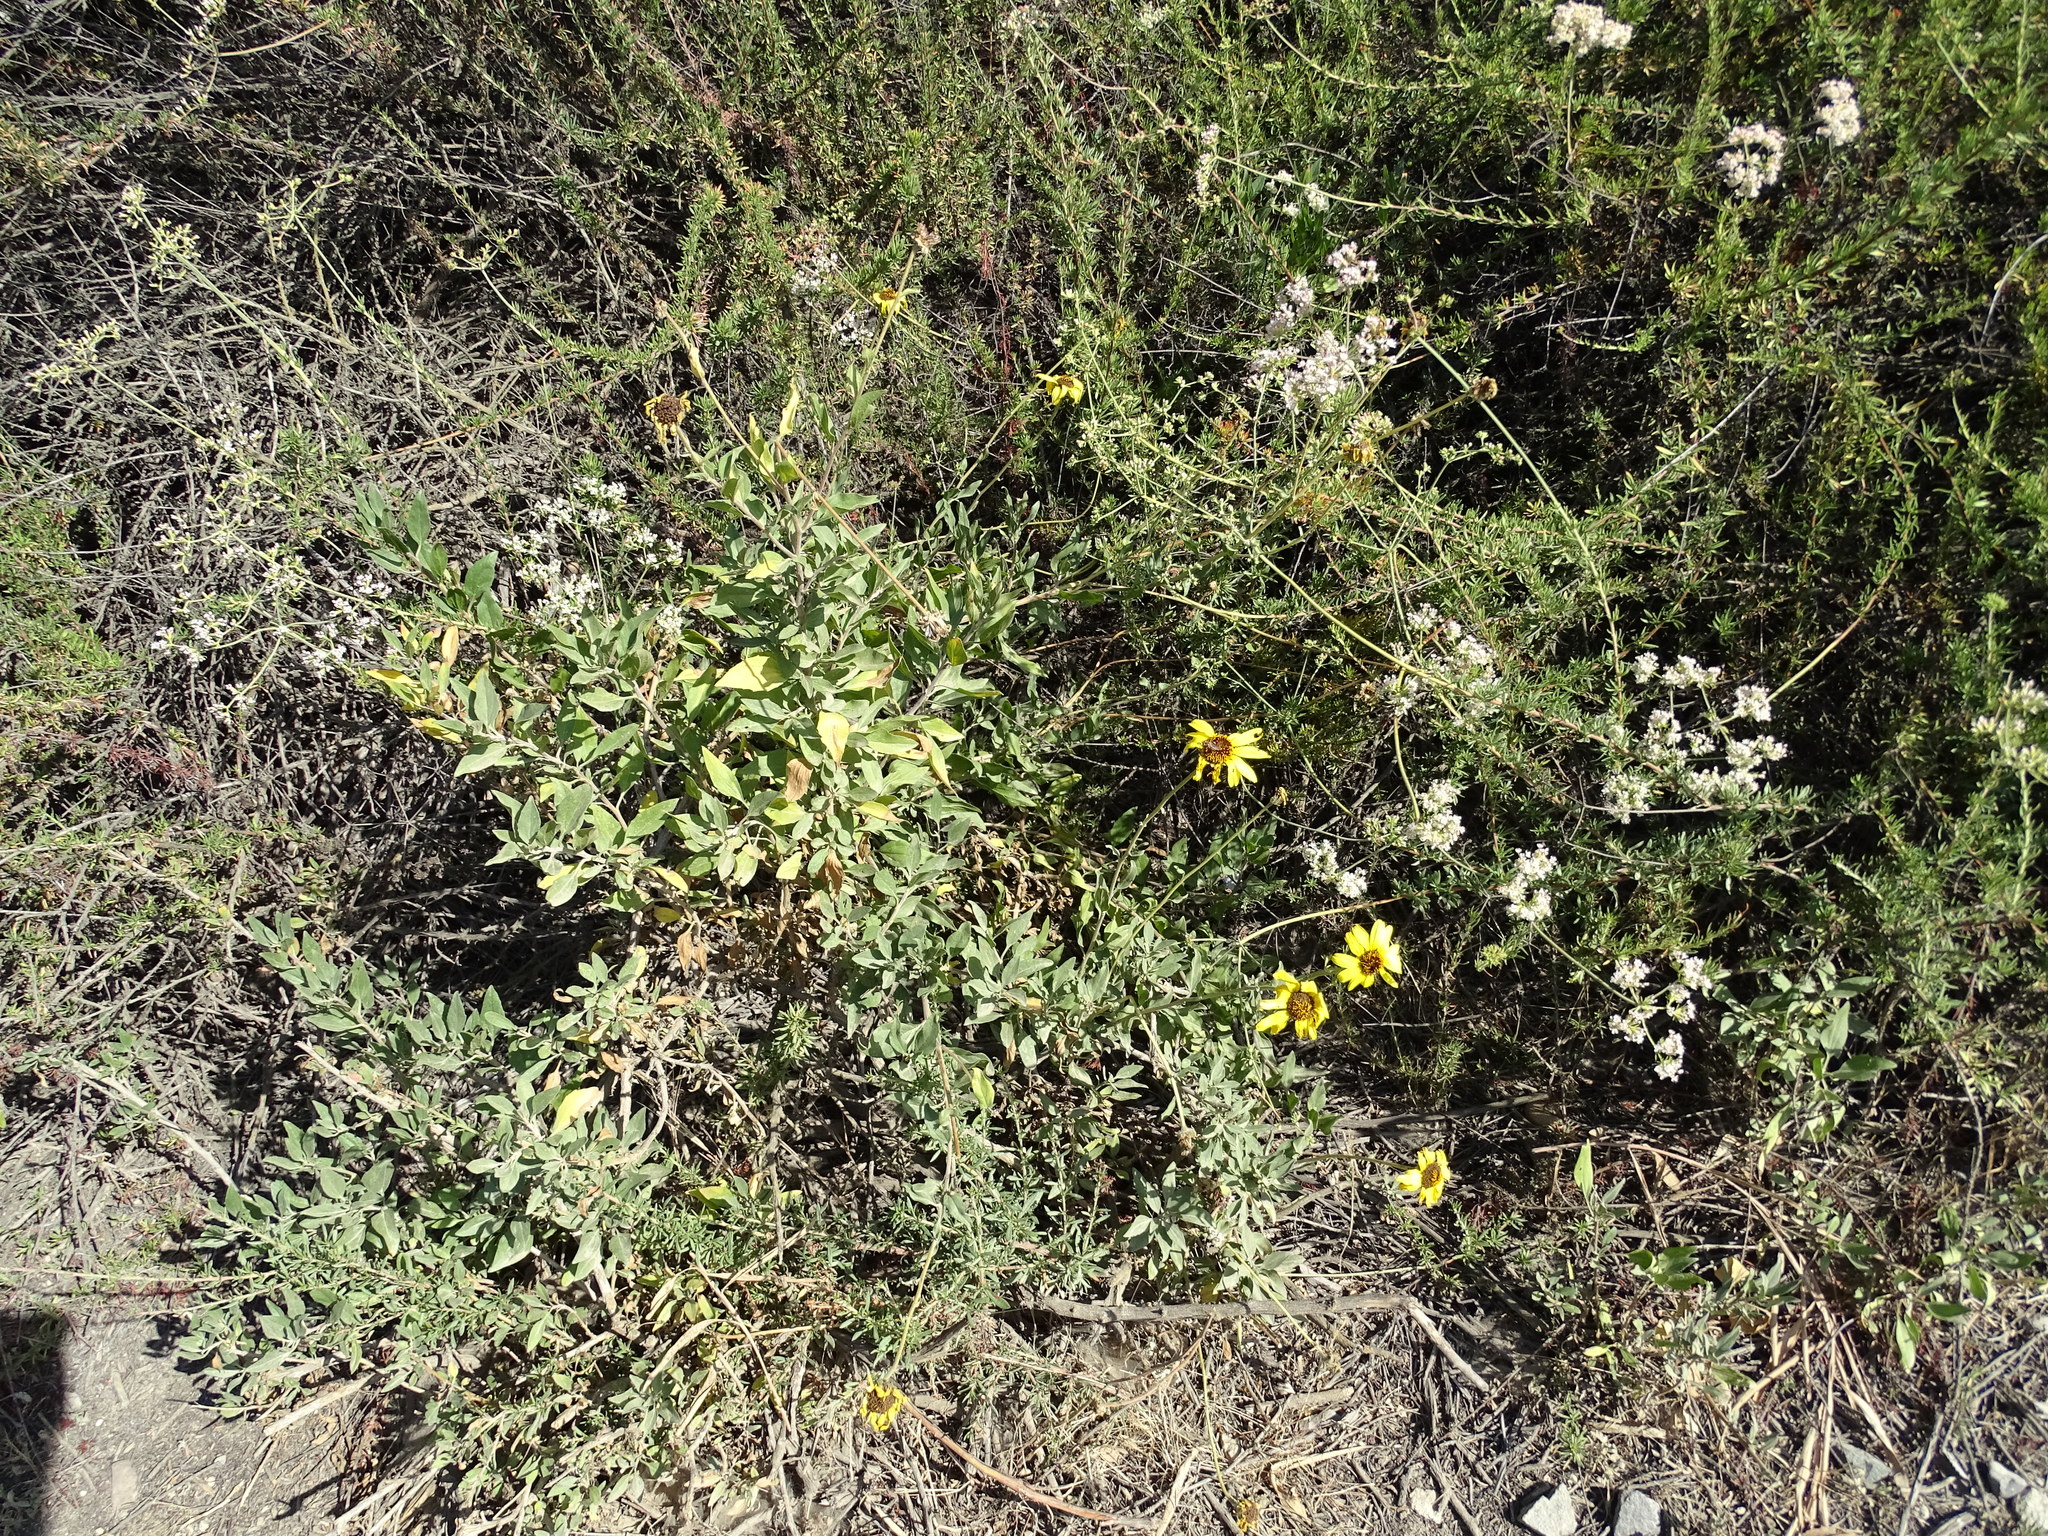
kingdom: Plantae
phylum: Tracheophyta
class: Magnoliopsida
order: Asterales
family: Asteraceae
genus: Encelia
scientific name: Encelia californica
